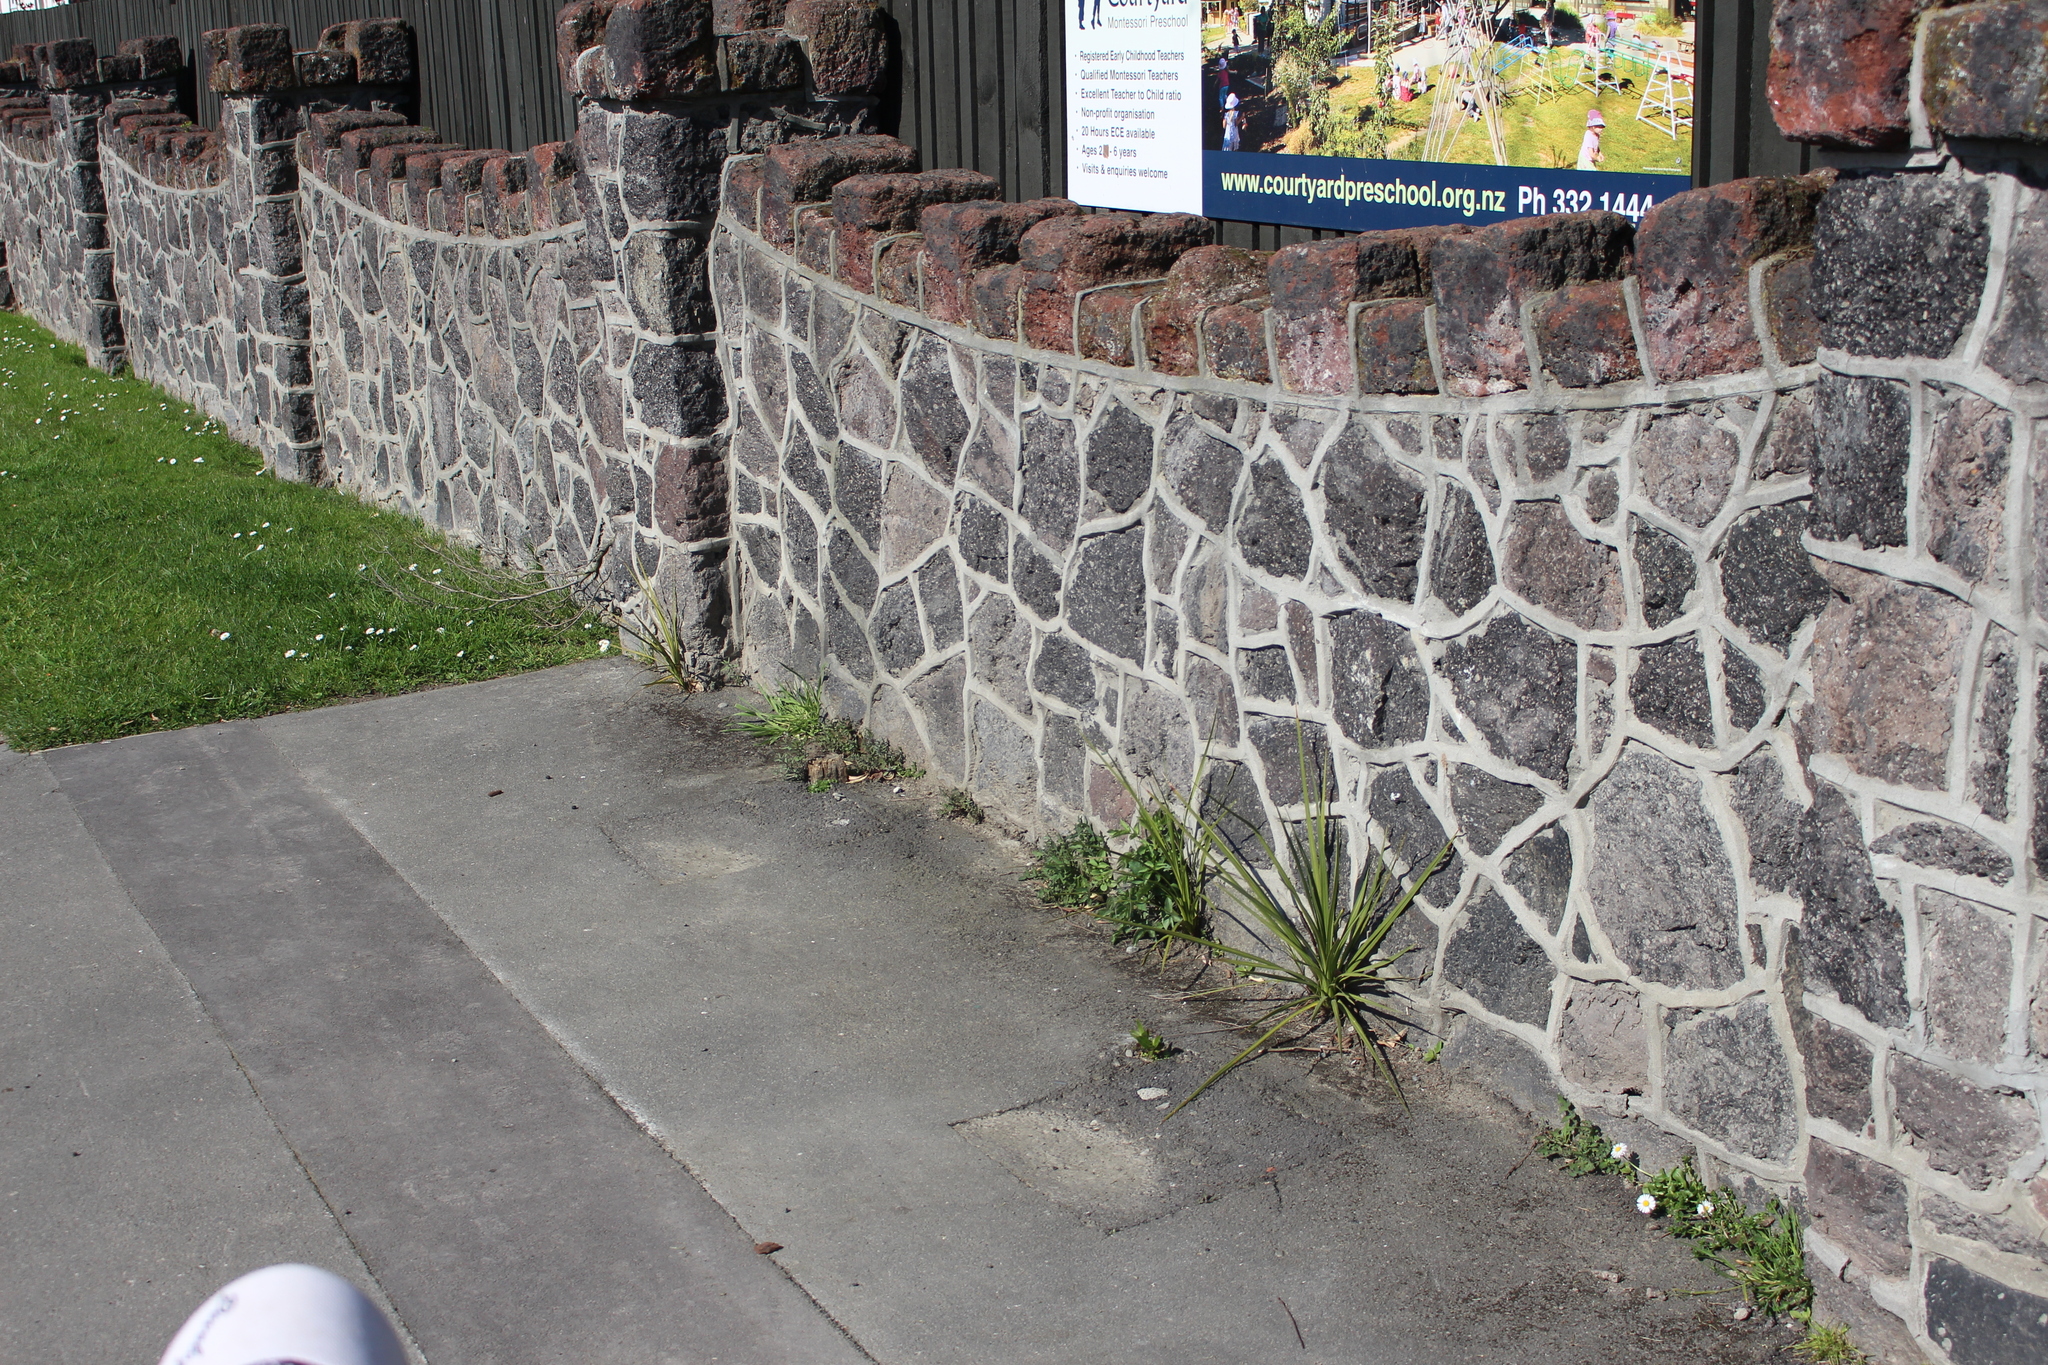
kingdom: Plantae
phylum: Tracheophyta
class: Liliopsida
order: Asparagales
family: Asparagaceae
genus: Cordyline
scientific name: Cordyline australis
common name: Cabbage-palm
